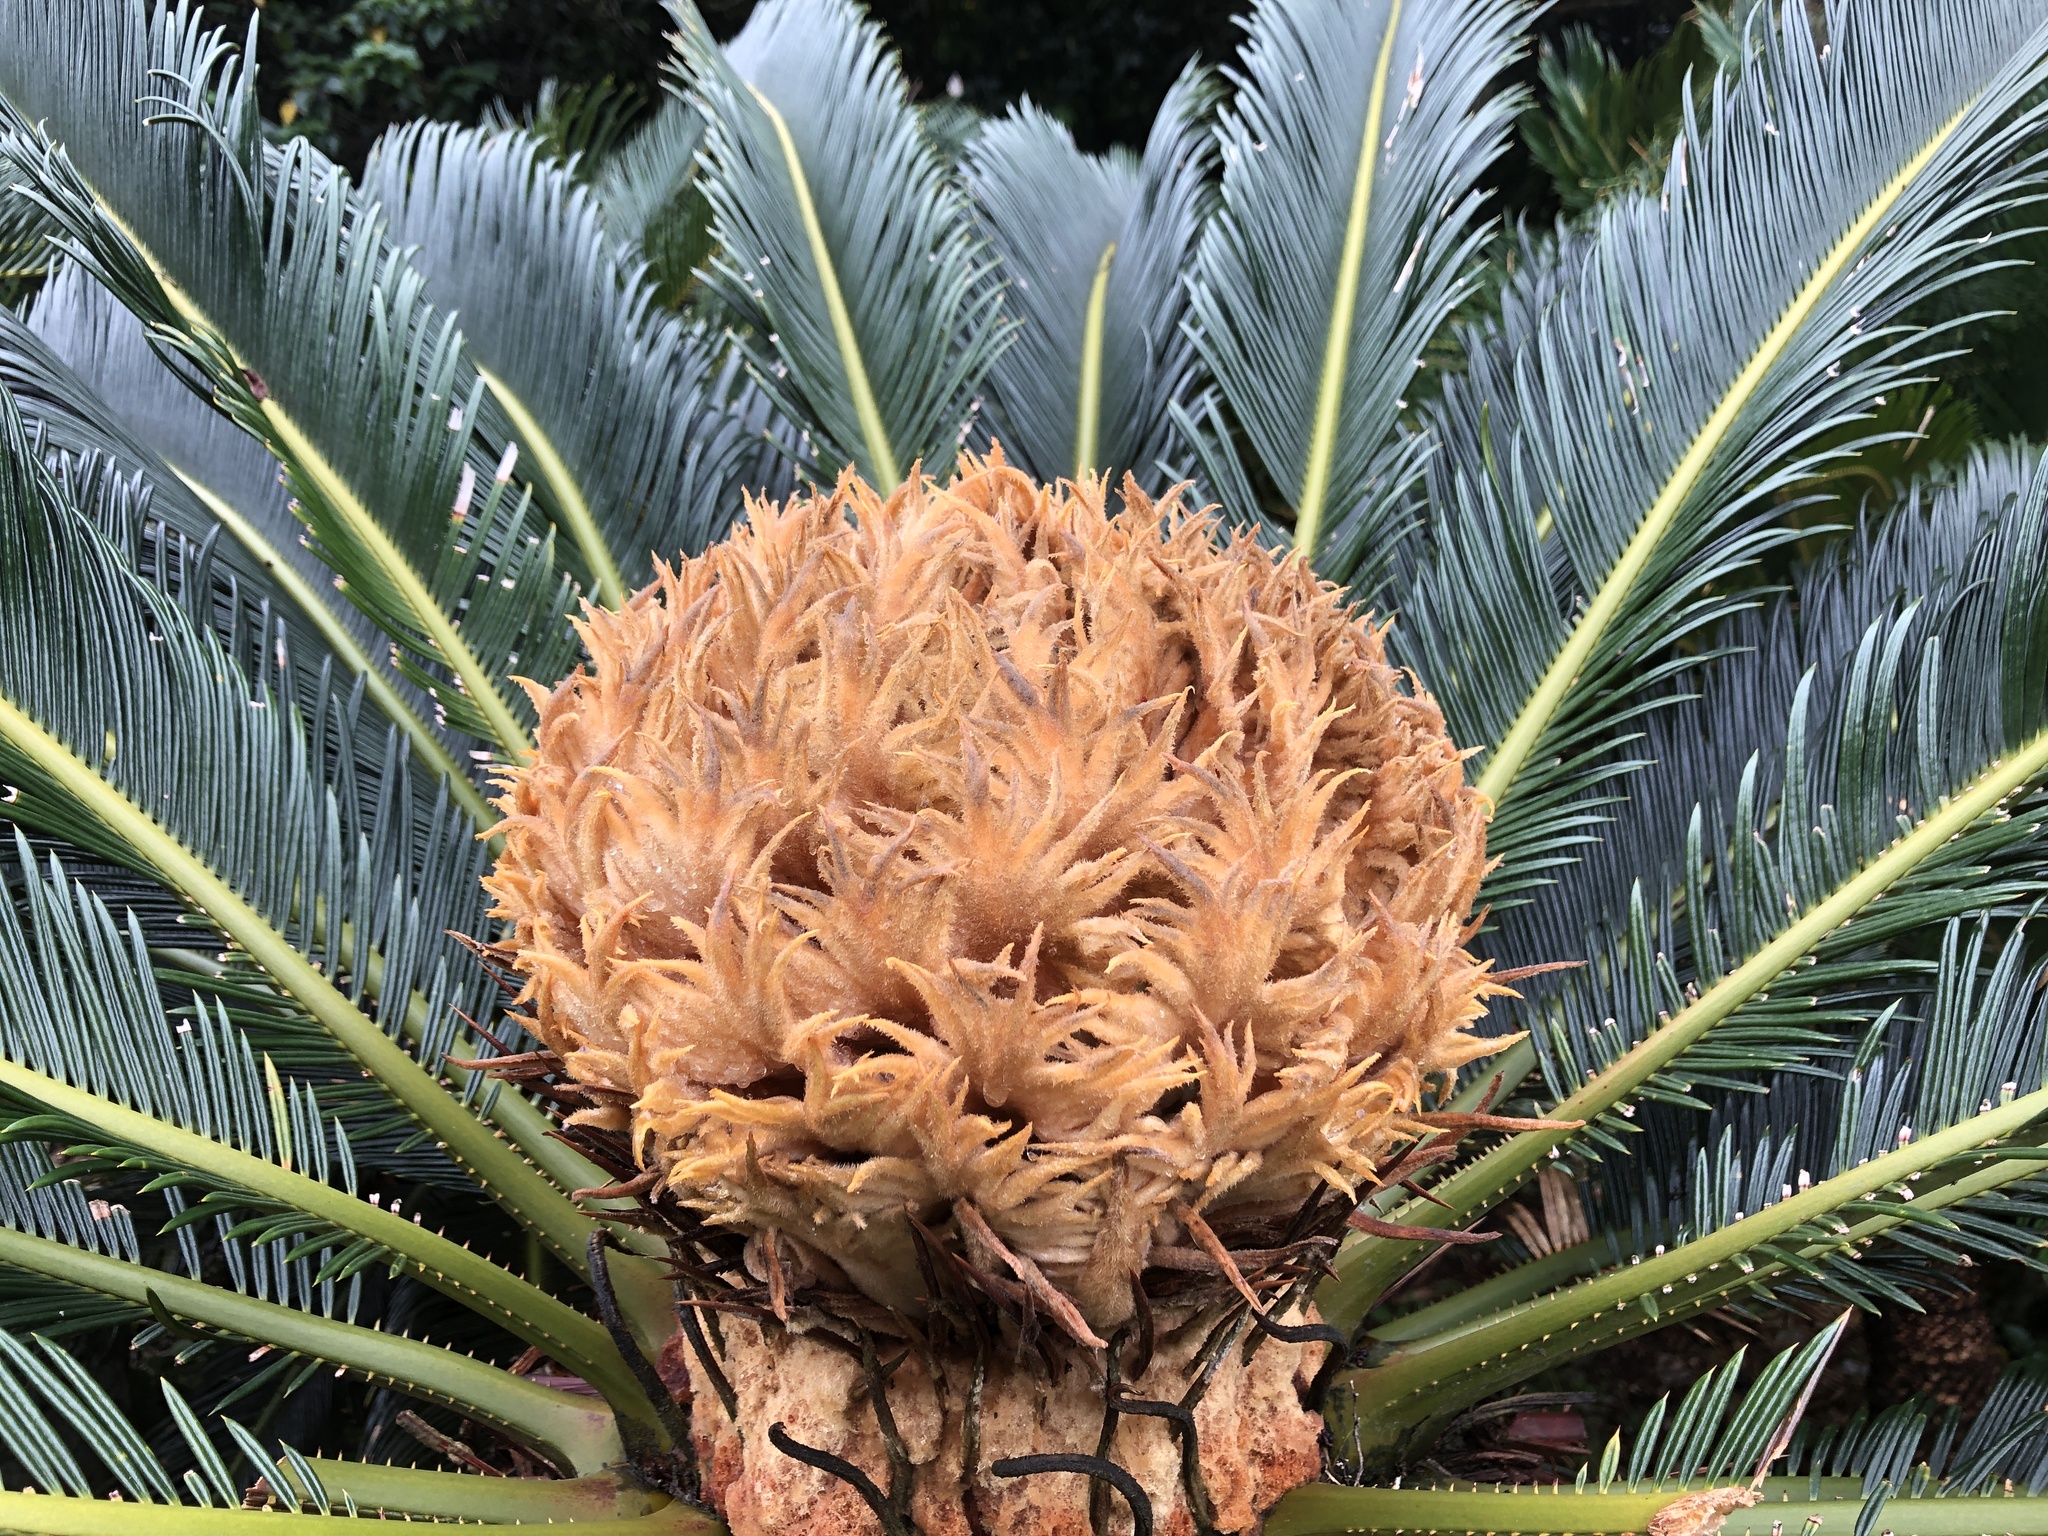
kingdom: Plantae
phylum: Tracheophyta
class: Cycadopsida
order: Cycadales
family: Cycadaceae
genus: Cycas
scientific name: Cycas revoluta
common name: Sago palm
